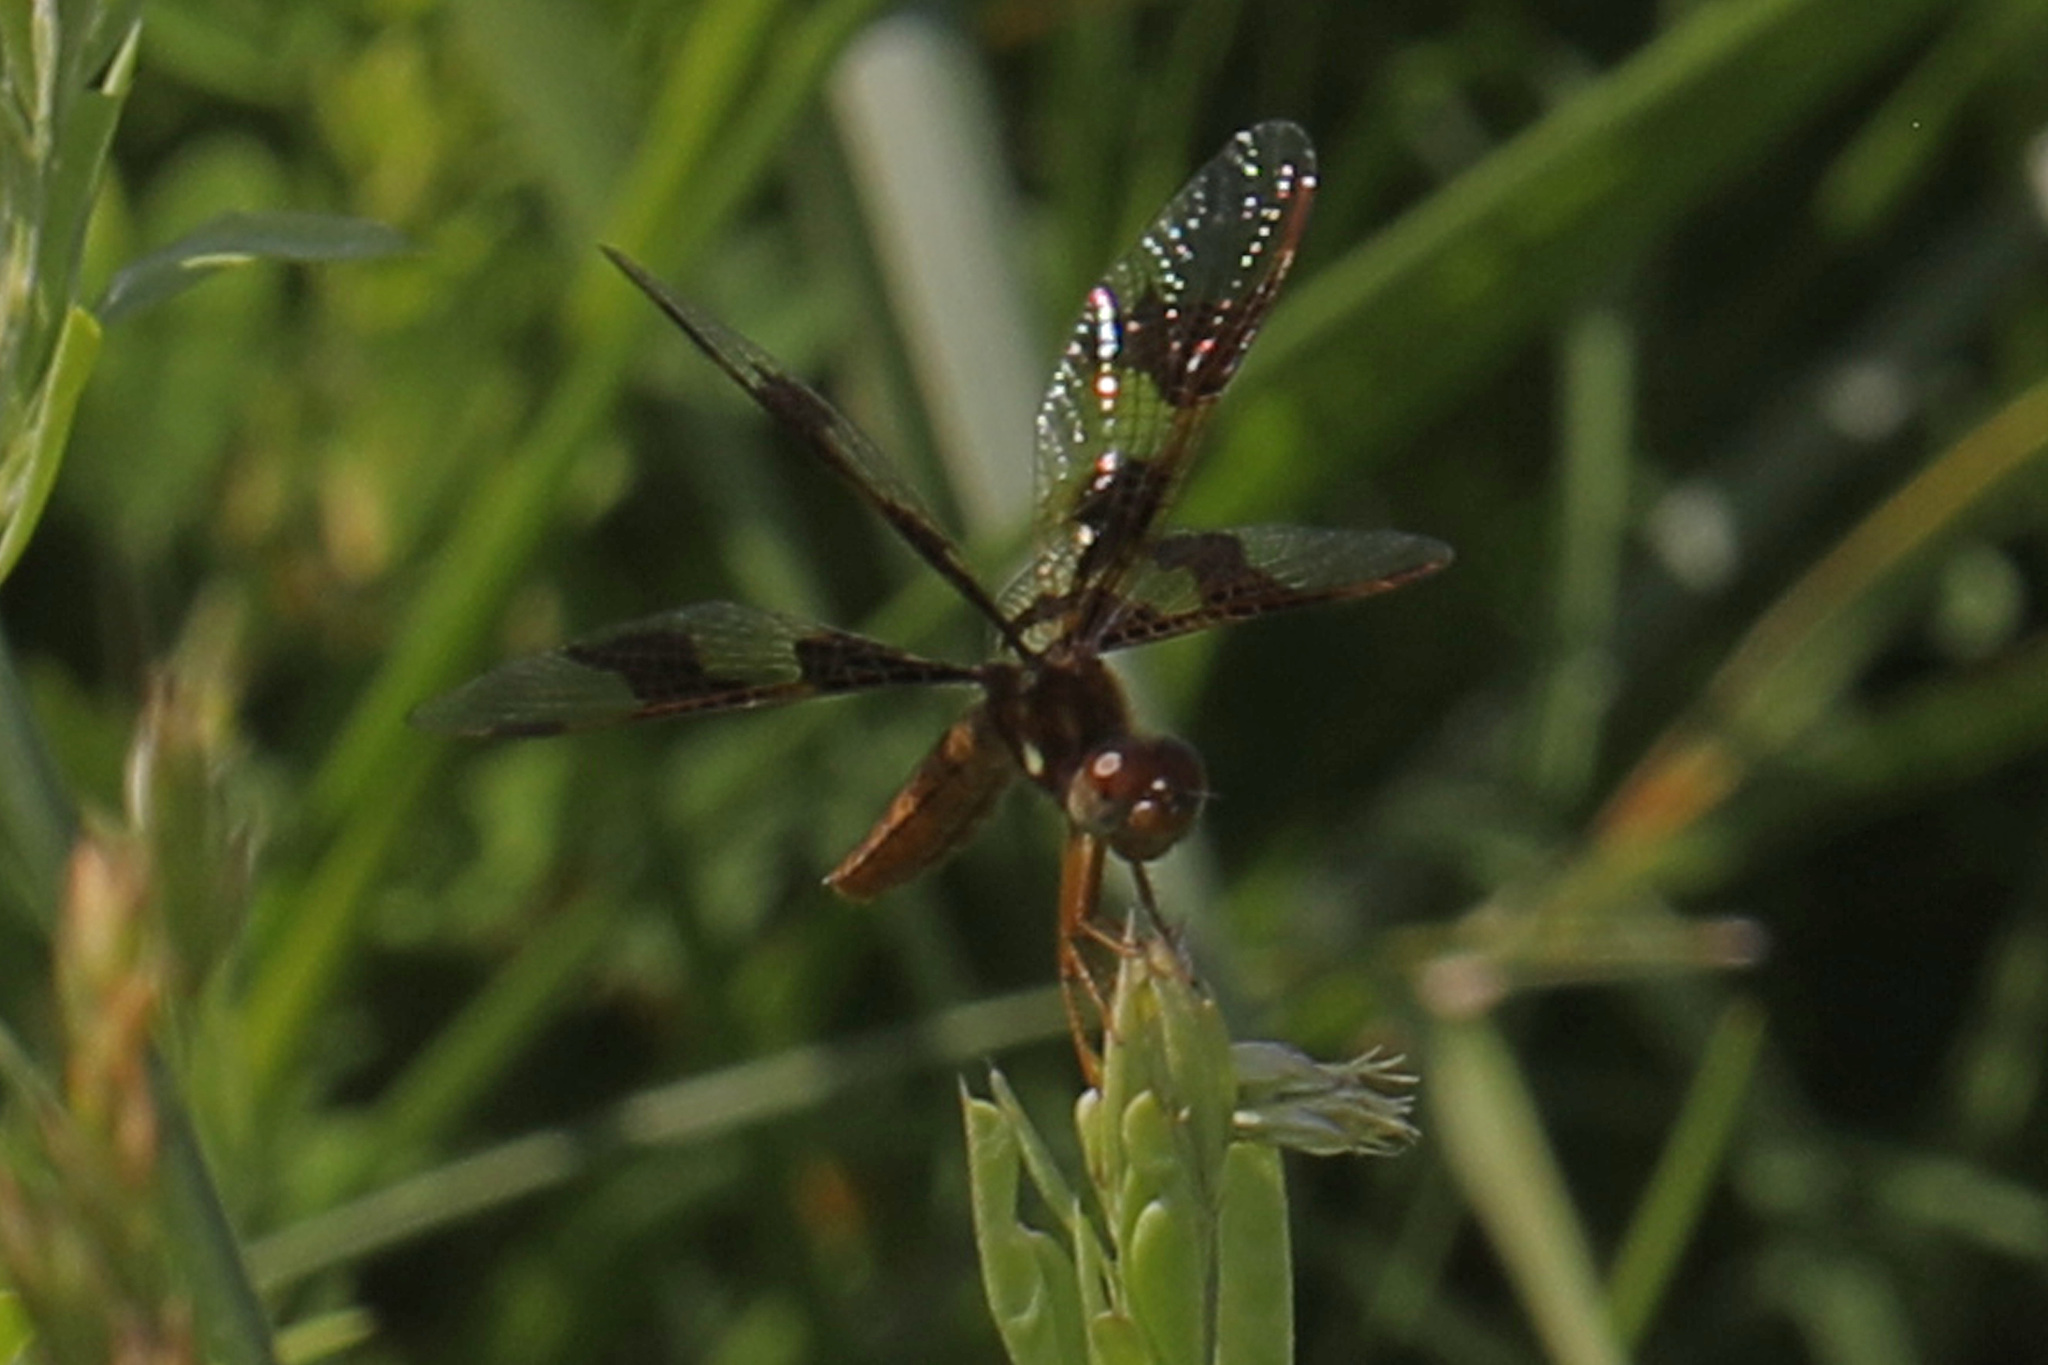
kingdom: Animalia
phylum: Arthropoda
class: Insecta
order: Odonata
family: Libellulidae
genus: Perithemis
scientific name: Perithemis tenera
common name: Eastern amberwing
